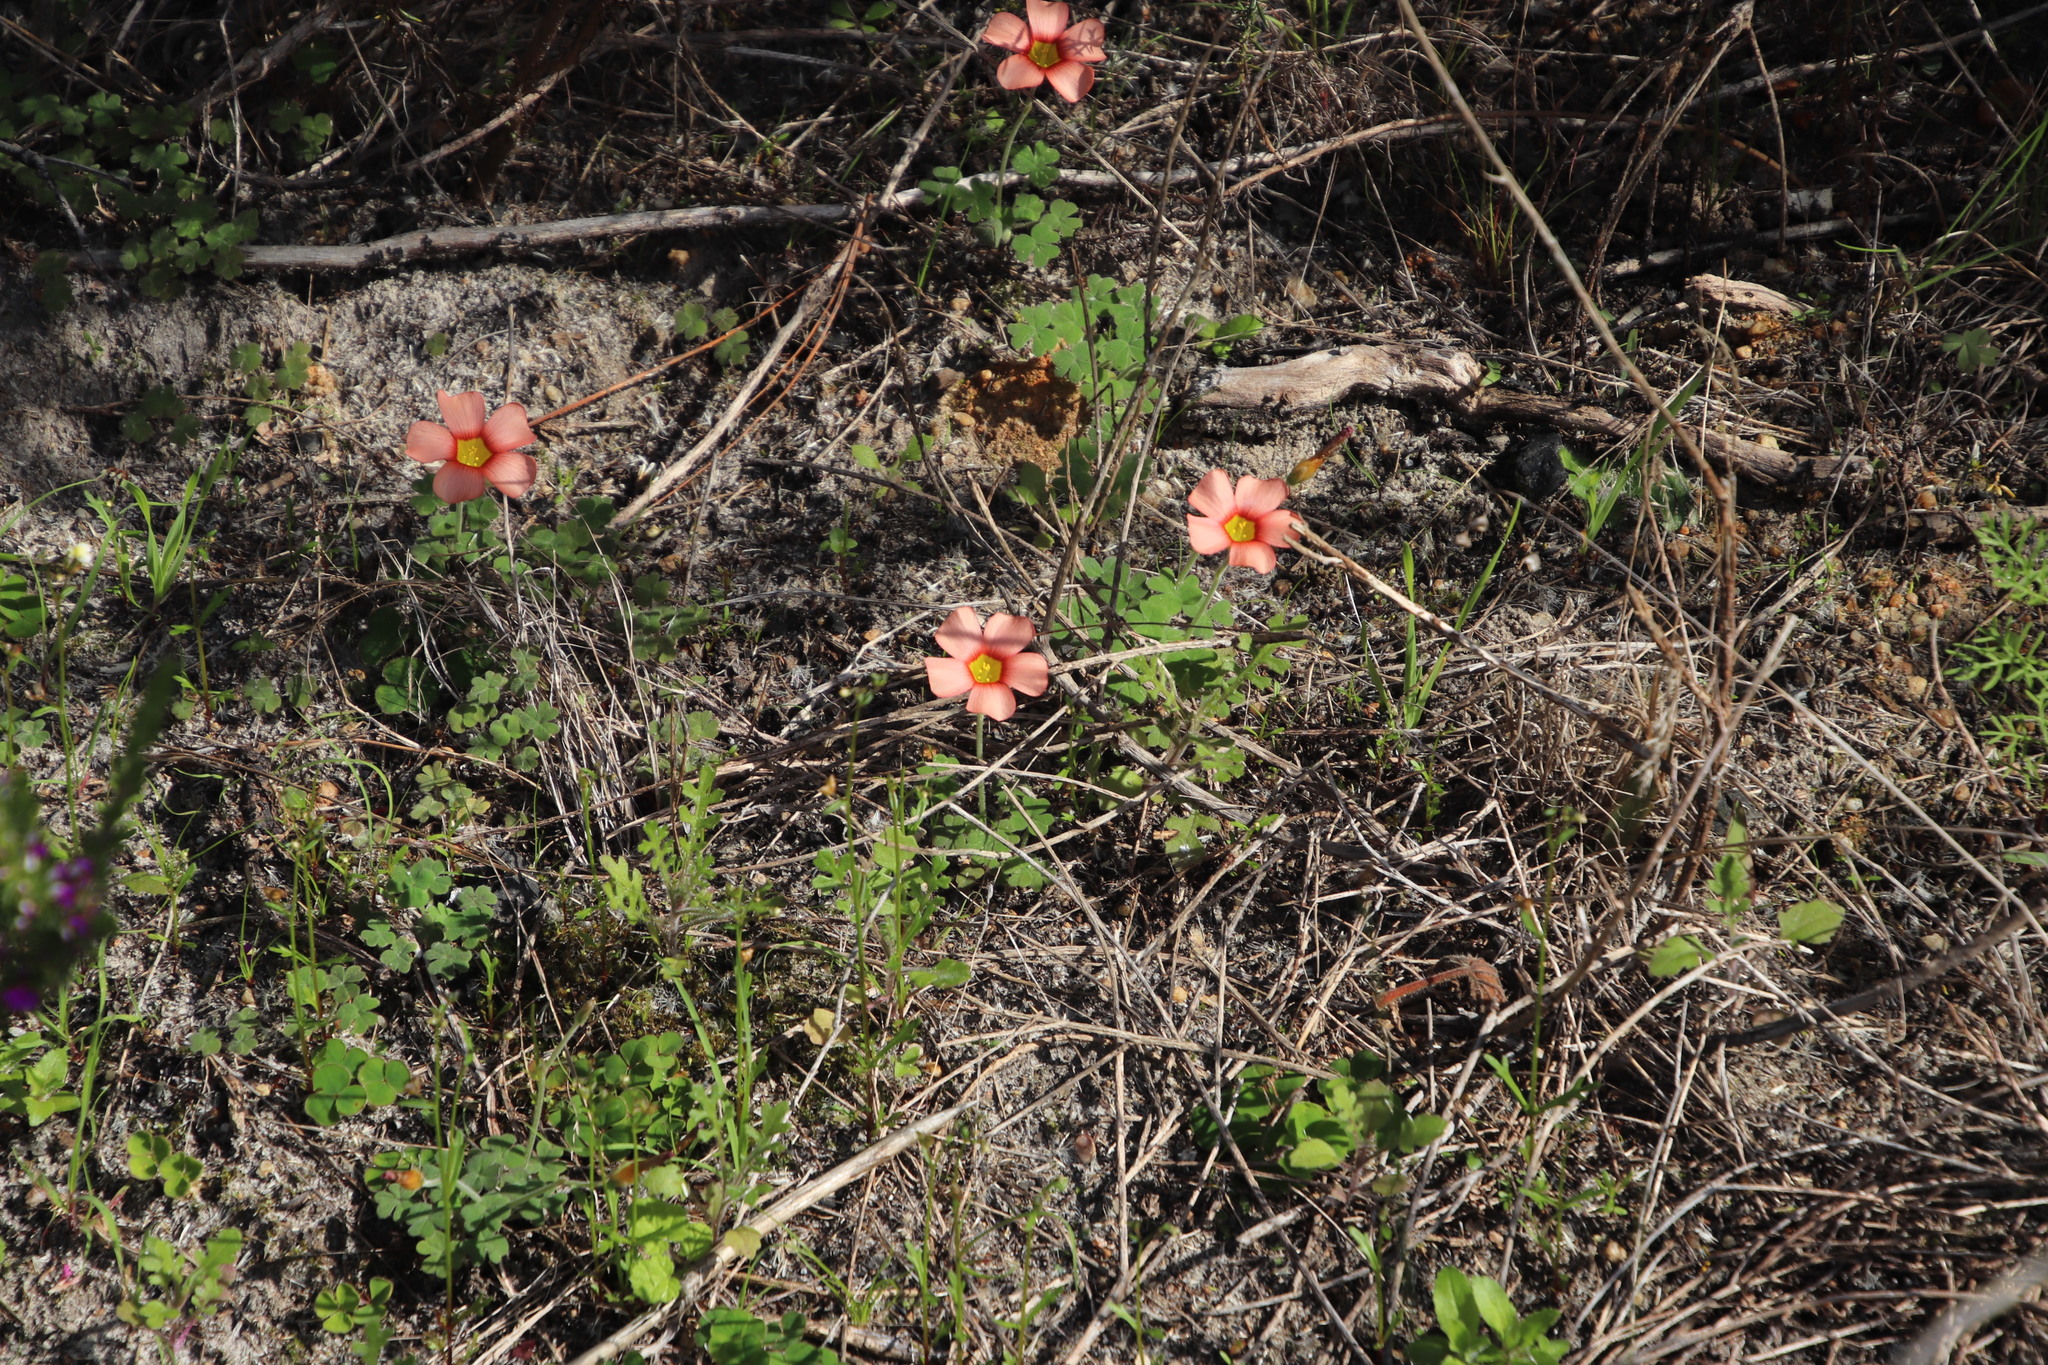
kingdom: Plantae
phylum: Tracheophyta
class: Magnoliopsida
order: Oxalidales
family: Oxalidaceae
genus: Oxalis
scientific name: Oxalis obtusa
